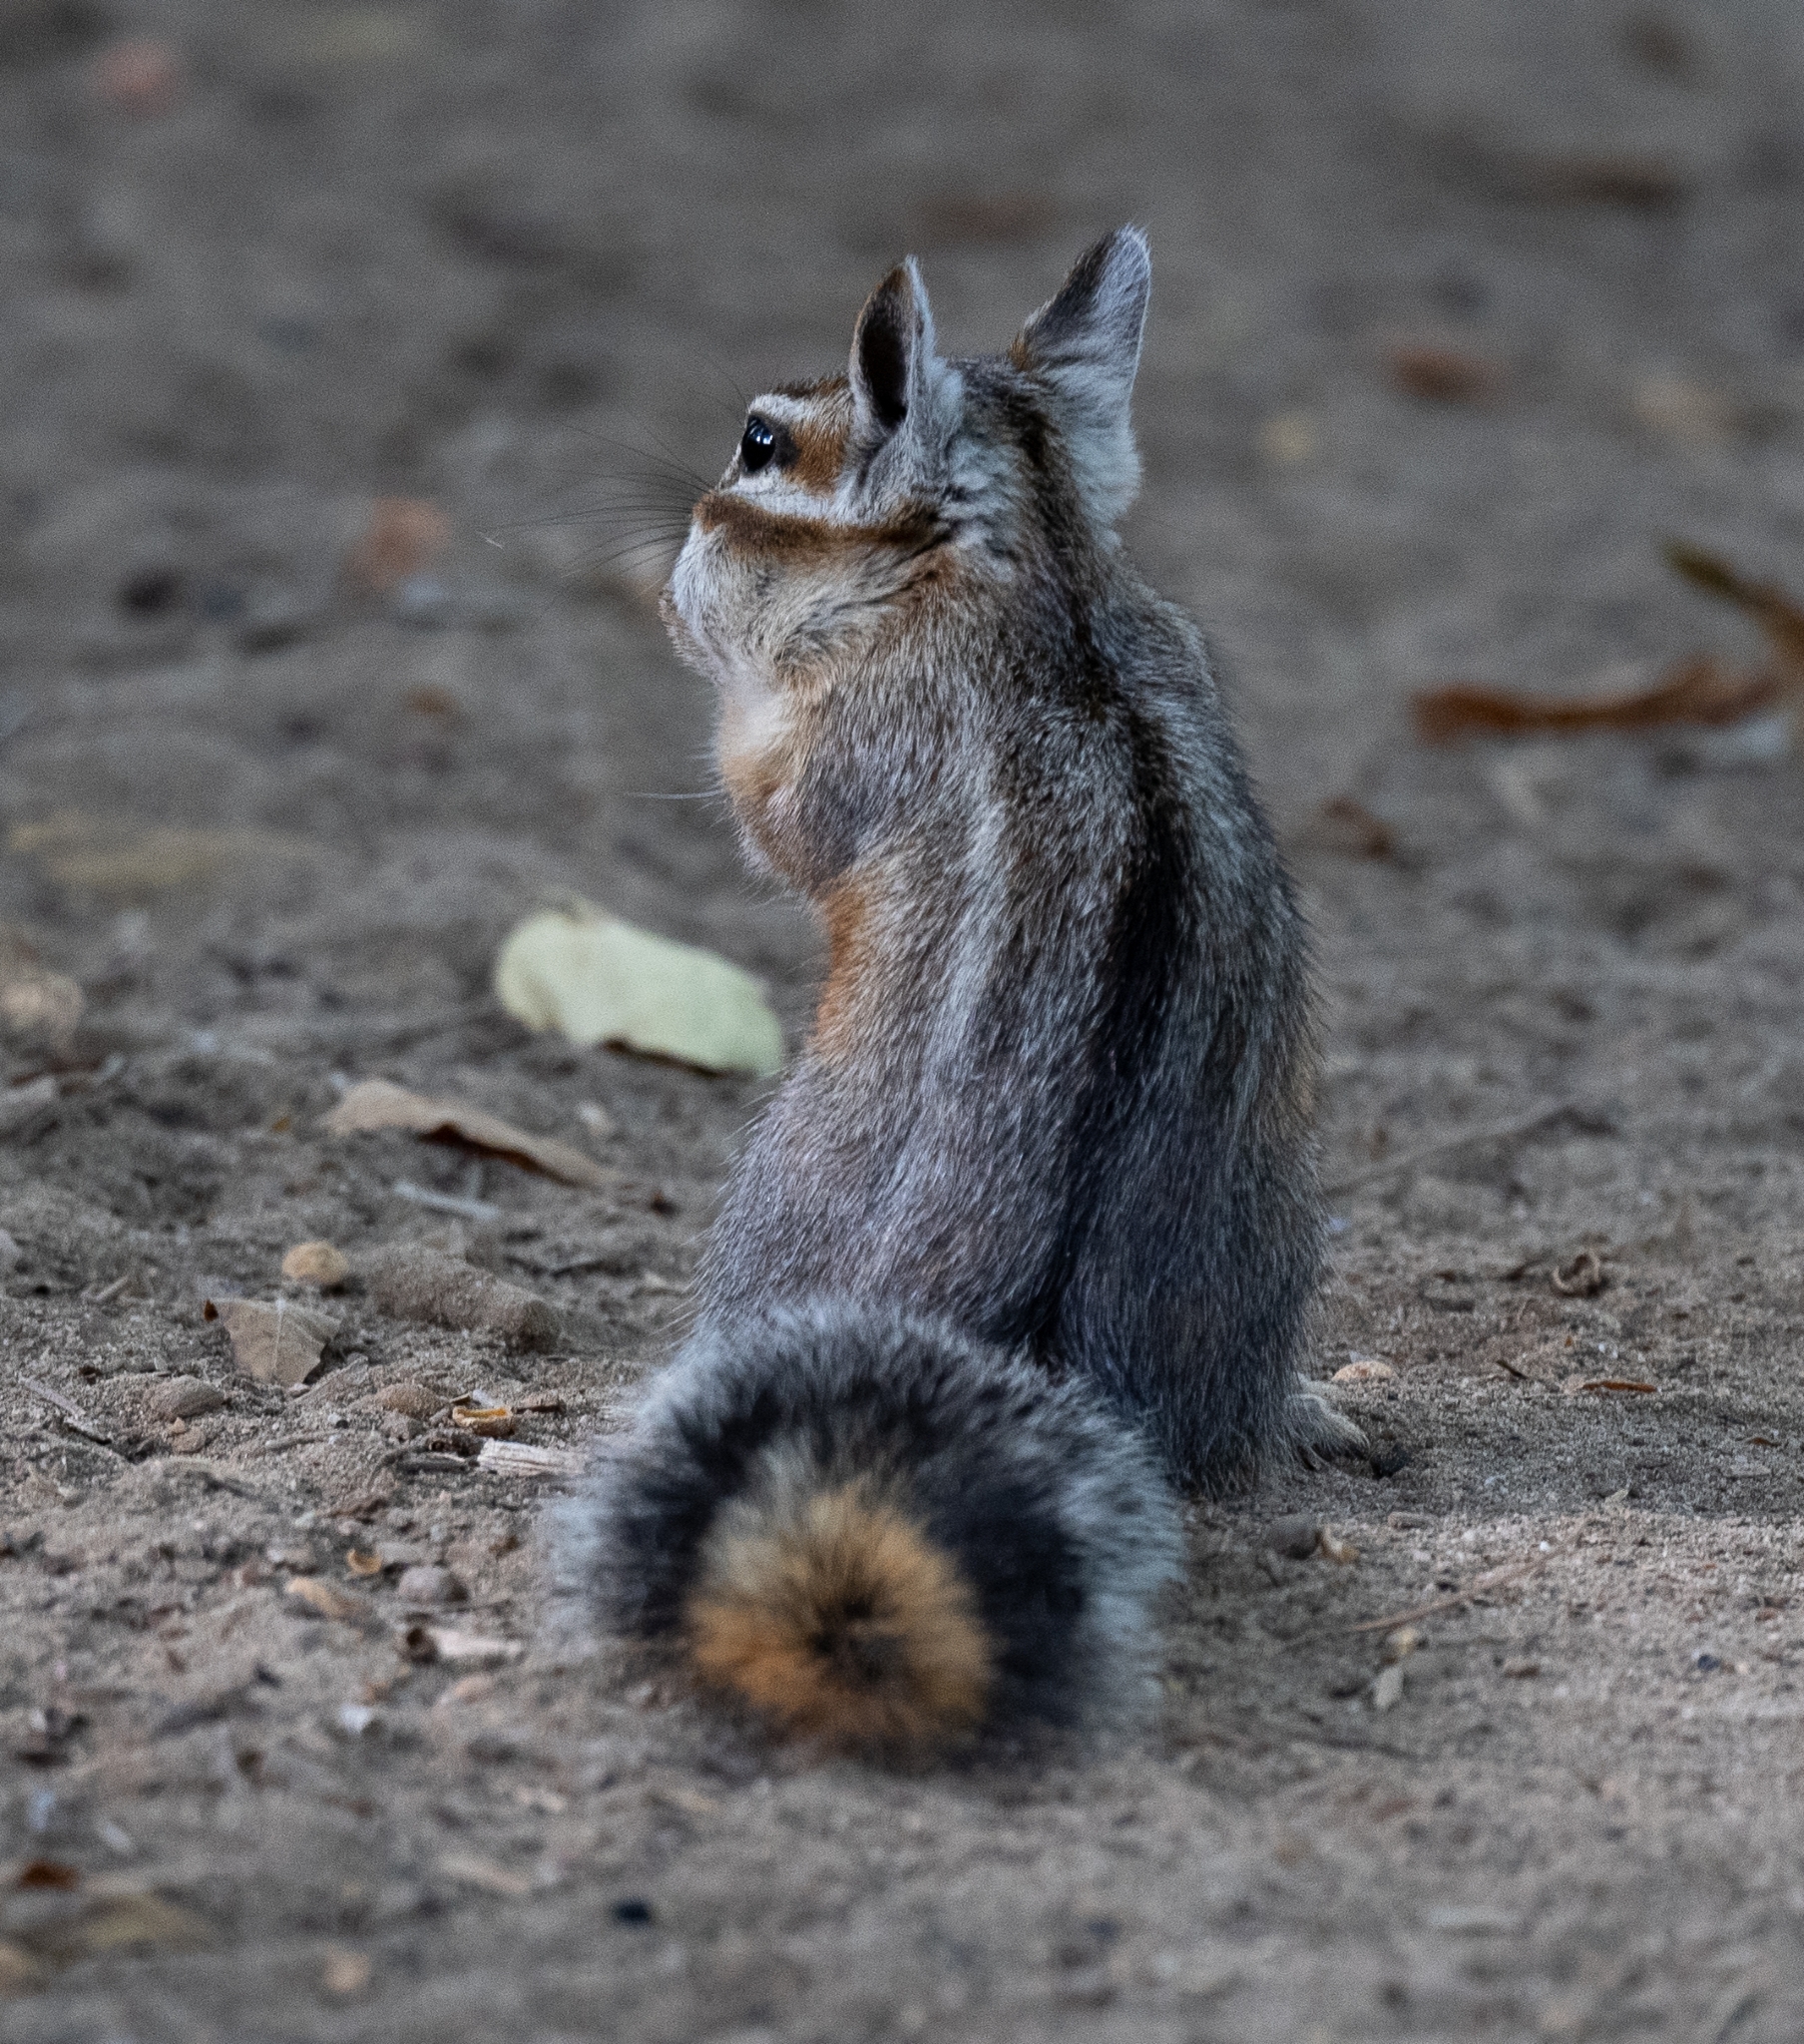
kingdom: Animalia
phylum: Chordata
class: Mammalia
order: Rodentia
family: Sciuridae
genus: Tamias
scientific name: Tamias dorsalis
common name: Cliff chipmunk
